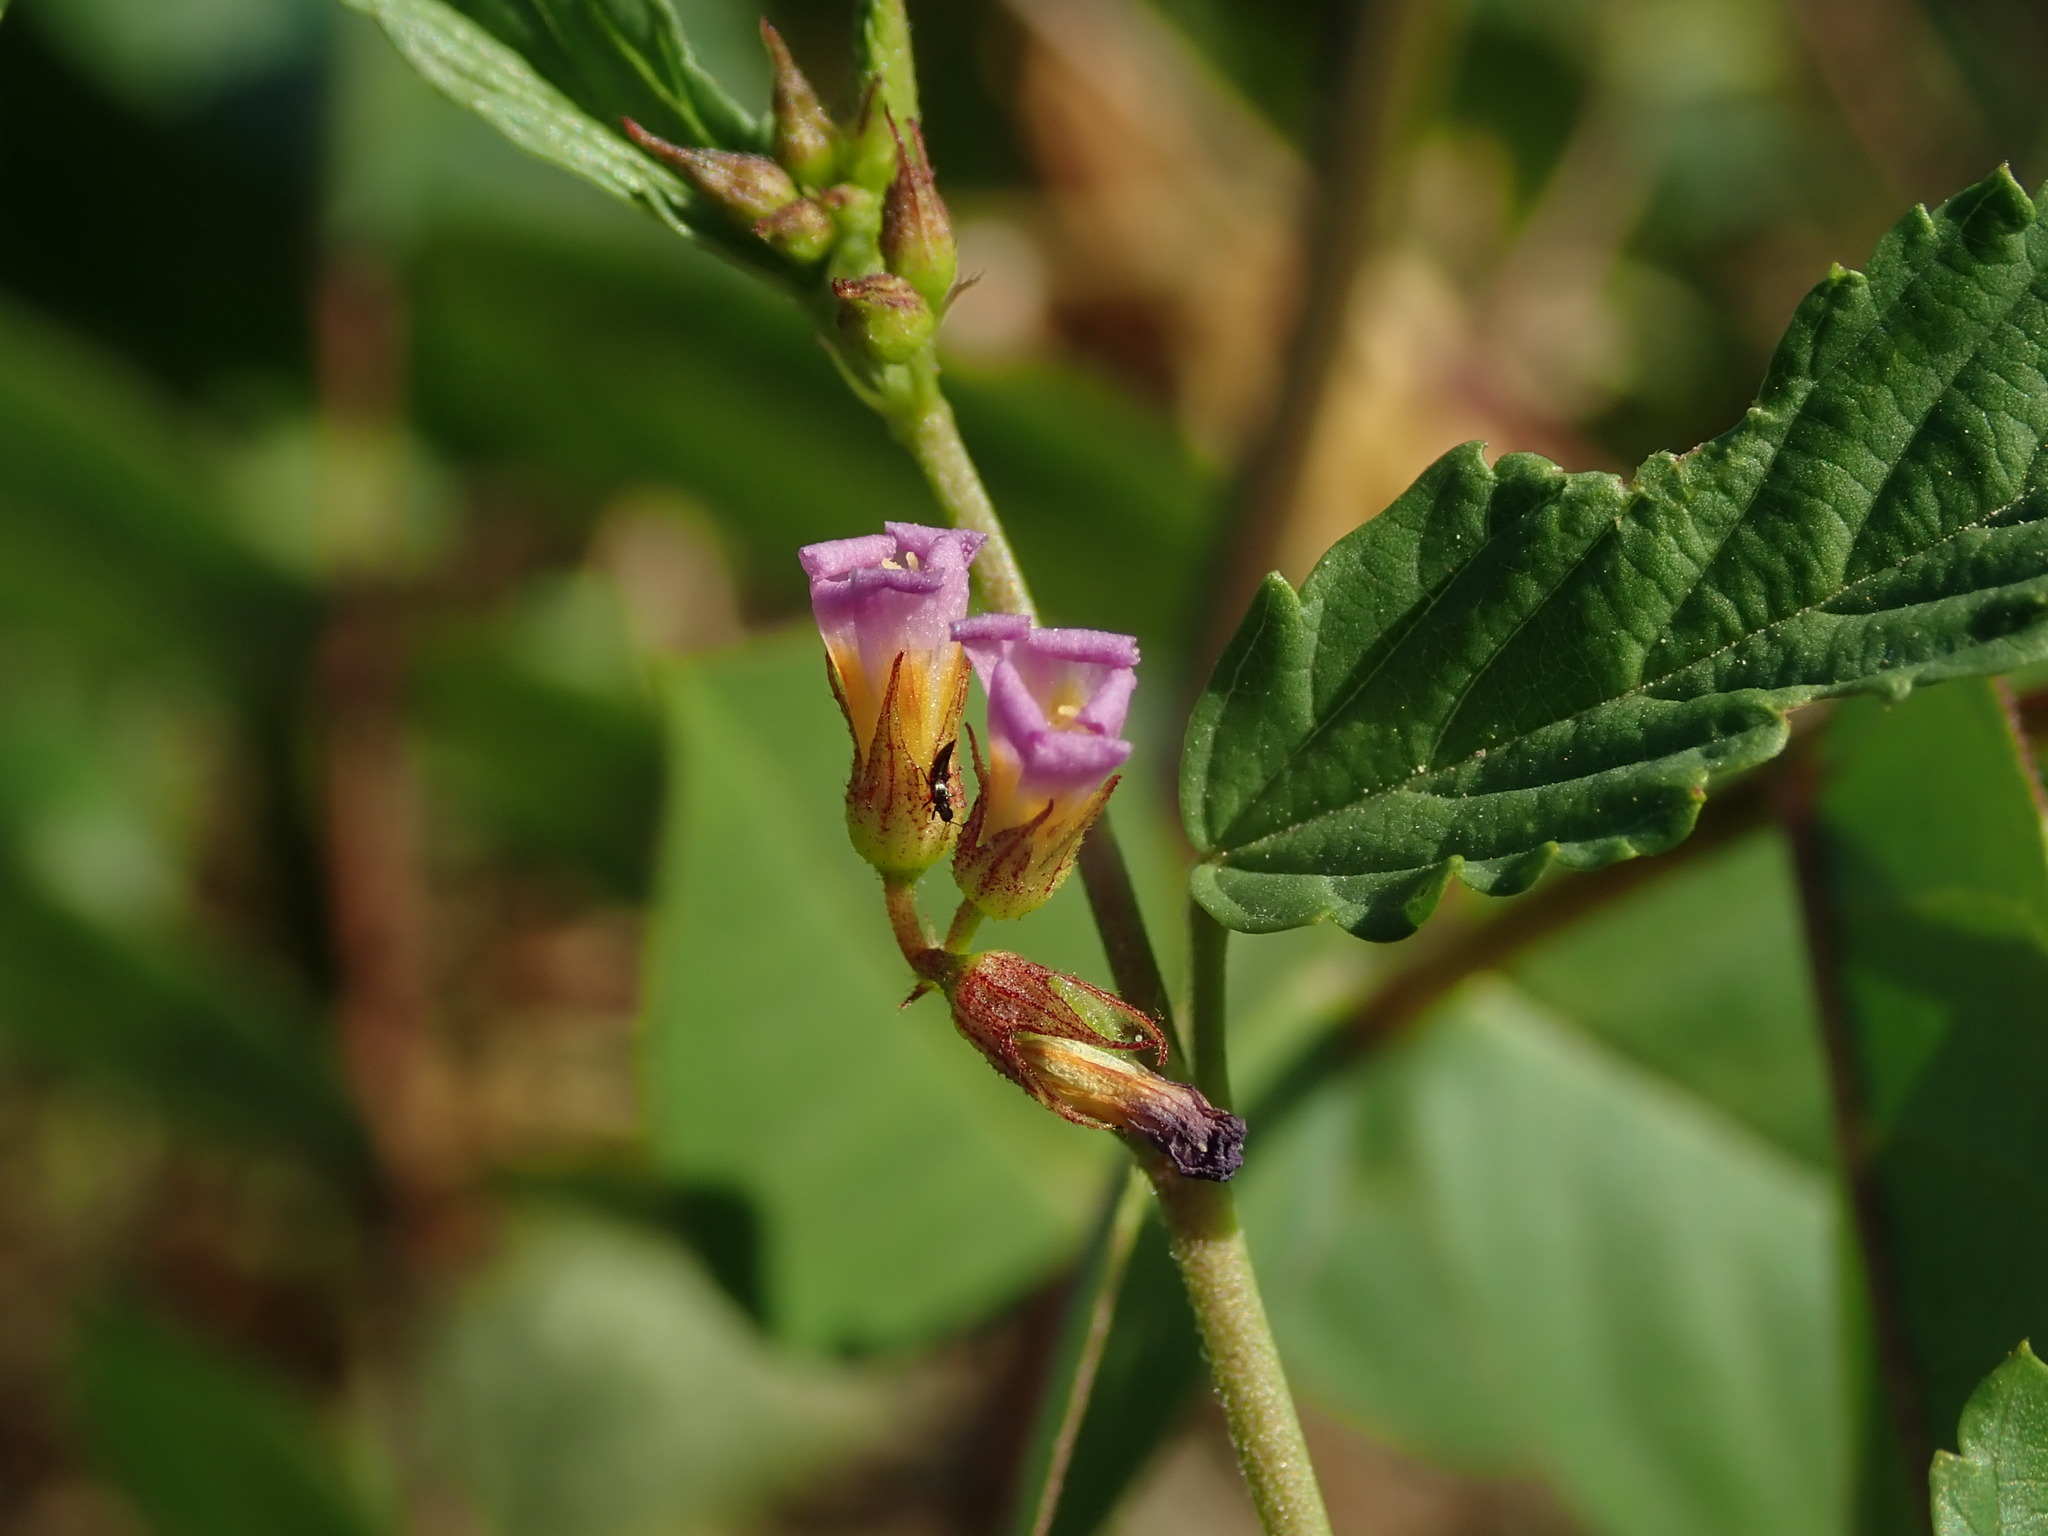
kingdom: Plantae
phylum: Tracheophyta
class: Magnoliopsida
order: Malvales
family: Malvaceae
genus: Melochia
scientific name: Melochia pyramidata
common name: Pyramidflower
